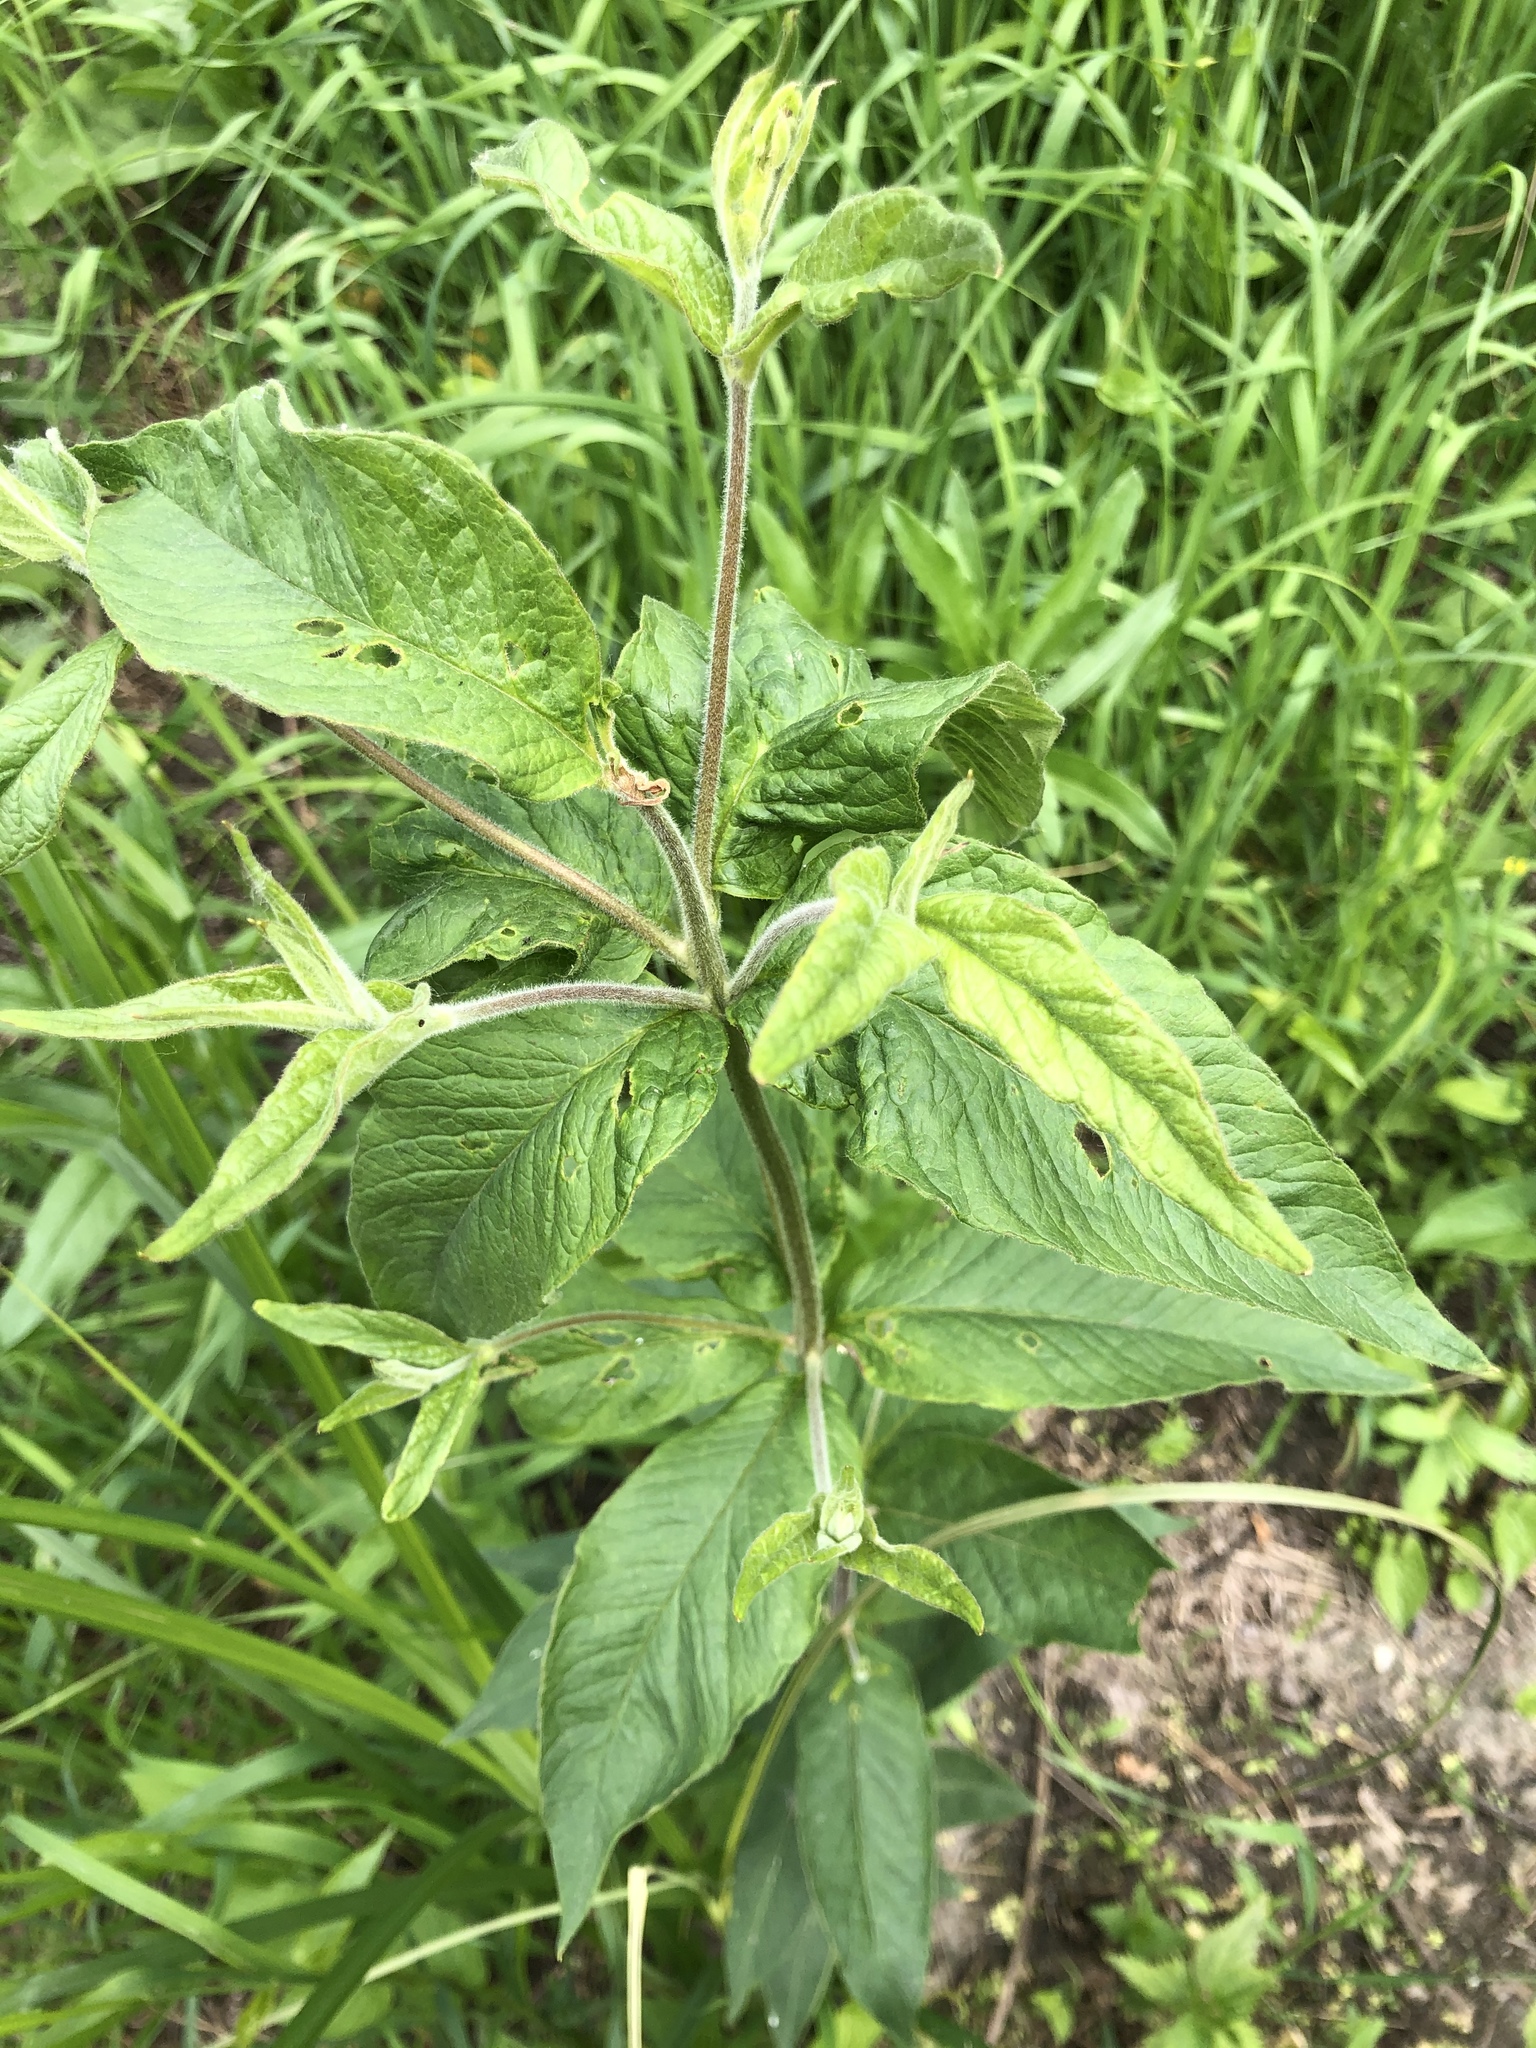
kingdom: Plantae
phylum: Tracheophyta
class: Magnoliopsida
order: Ericales
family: Primulaceae
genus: Lysimachia
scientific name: Lysimachia vulgaris
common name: Yellow loosestrife
